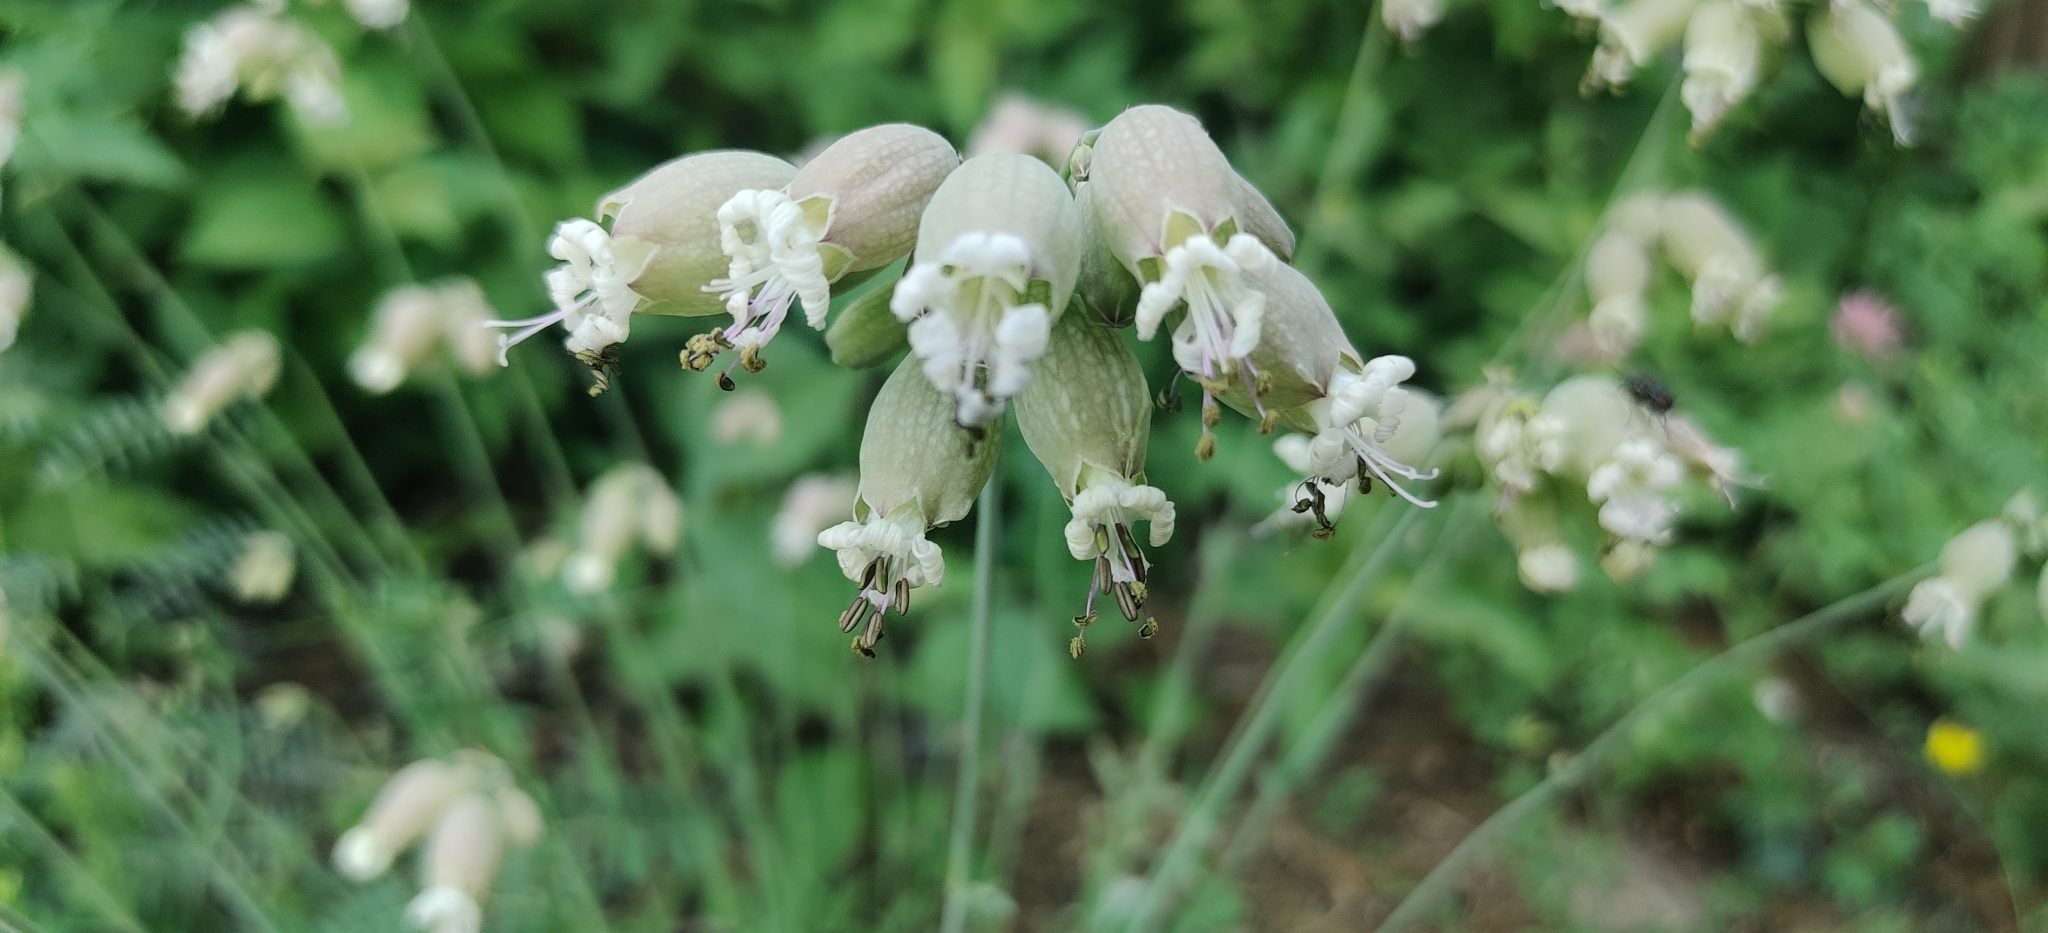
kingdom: Plantae
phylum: Tracheophyta
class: Magnoliopsida
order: Caryophyllales
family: Caryophyllaceae
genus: Silene
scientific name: Silene vulgaris
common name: Bladder campion
